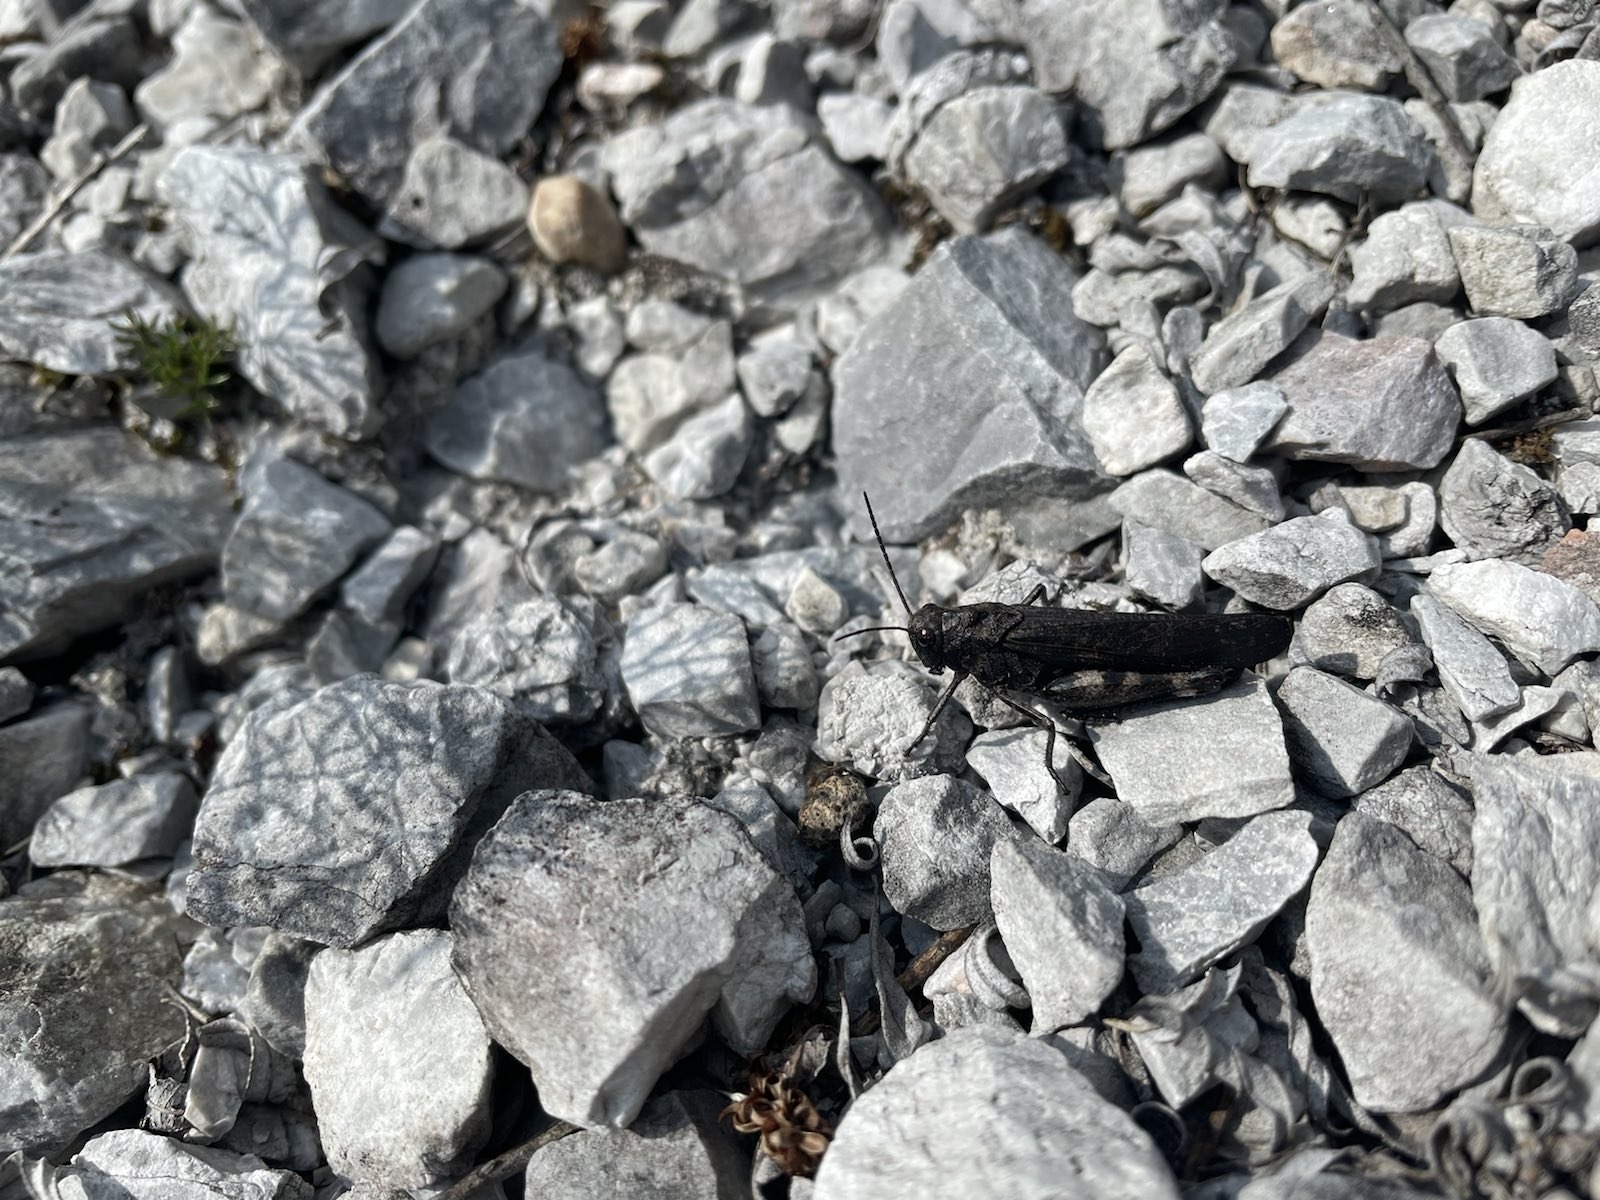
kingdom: Animalia
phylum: Arthropoda
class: Insecta
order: Orthoptera
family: Acrididae
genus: Psophus
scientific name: Psophus stridulus
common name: Rattle grasshopper
